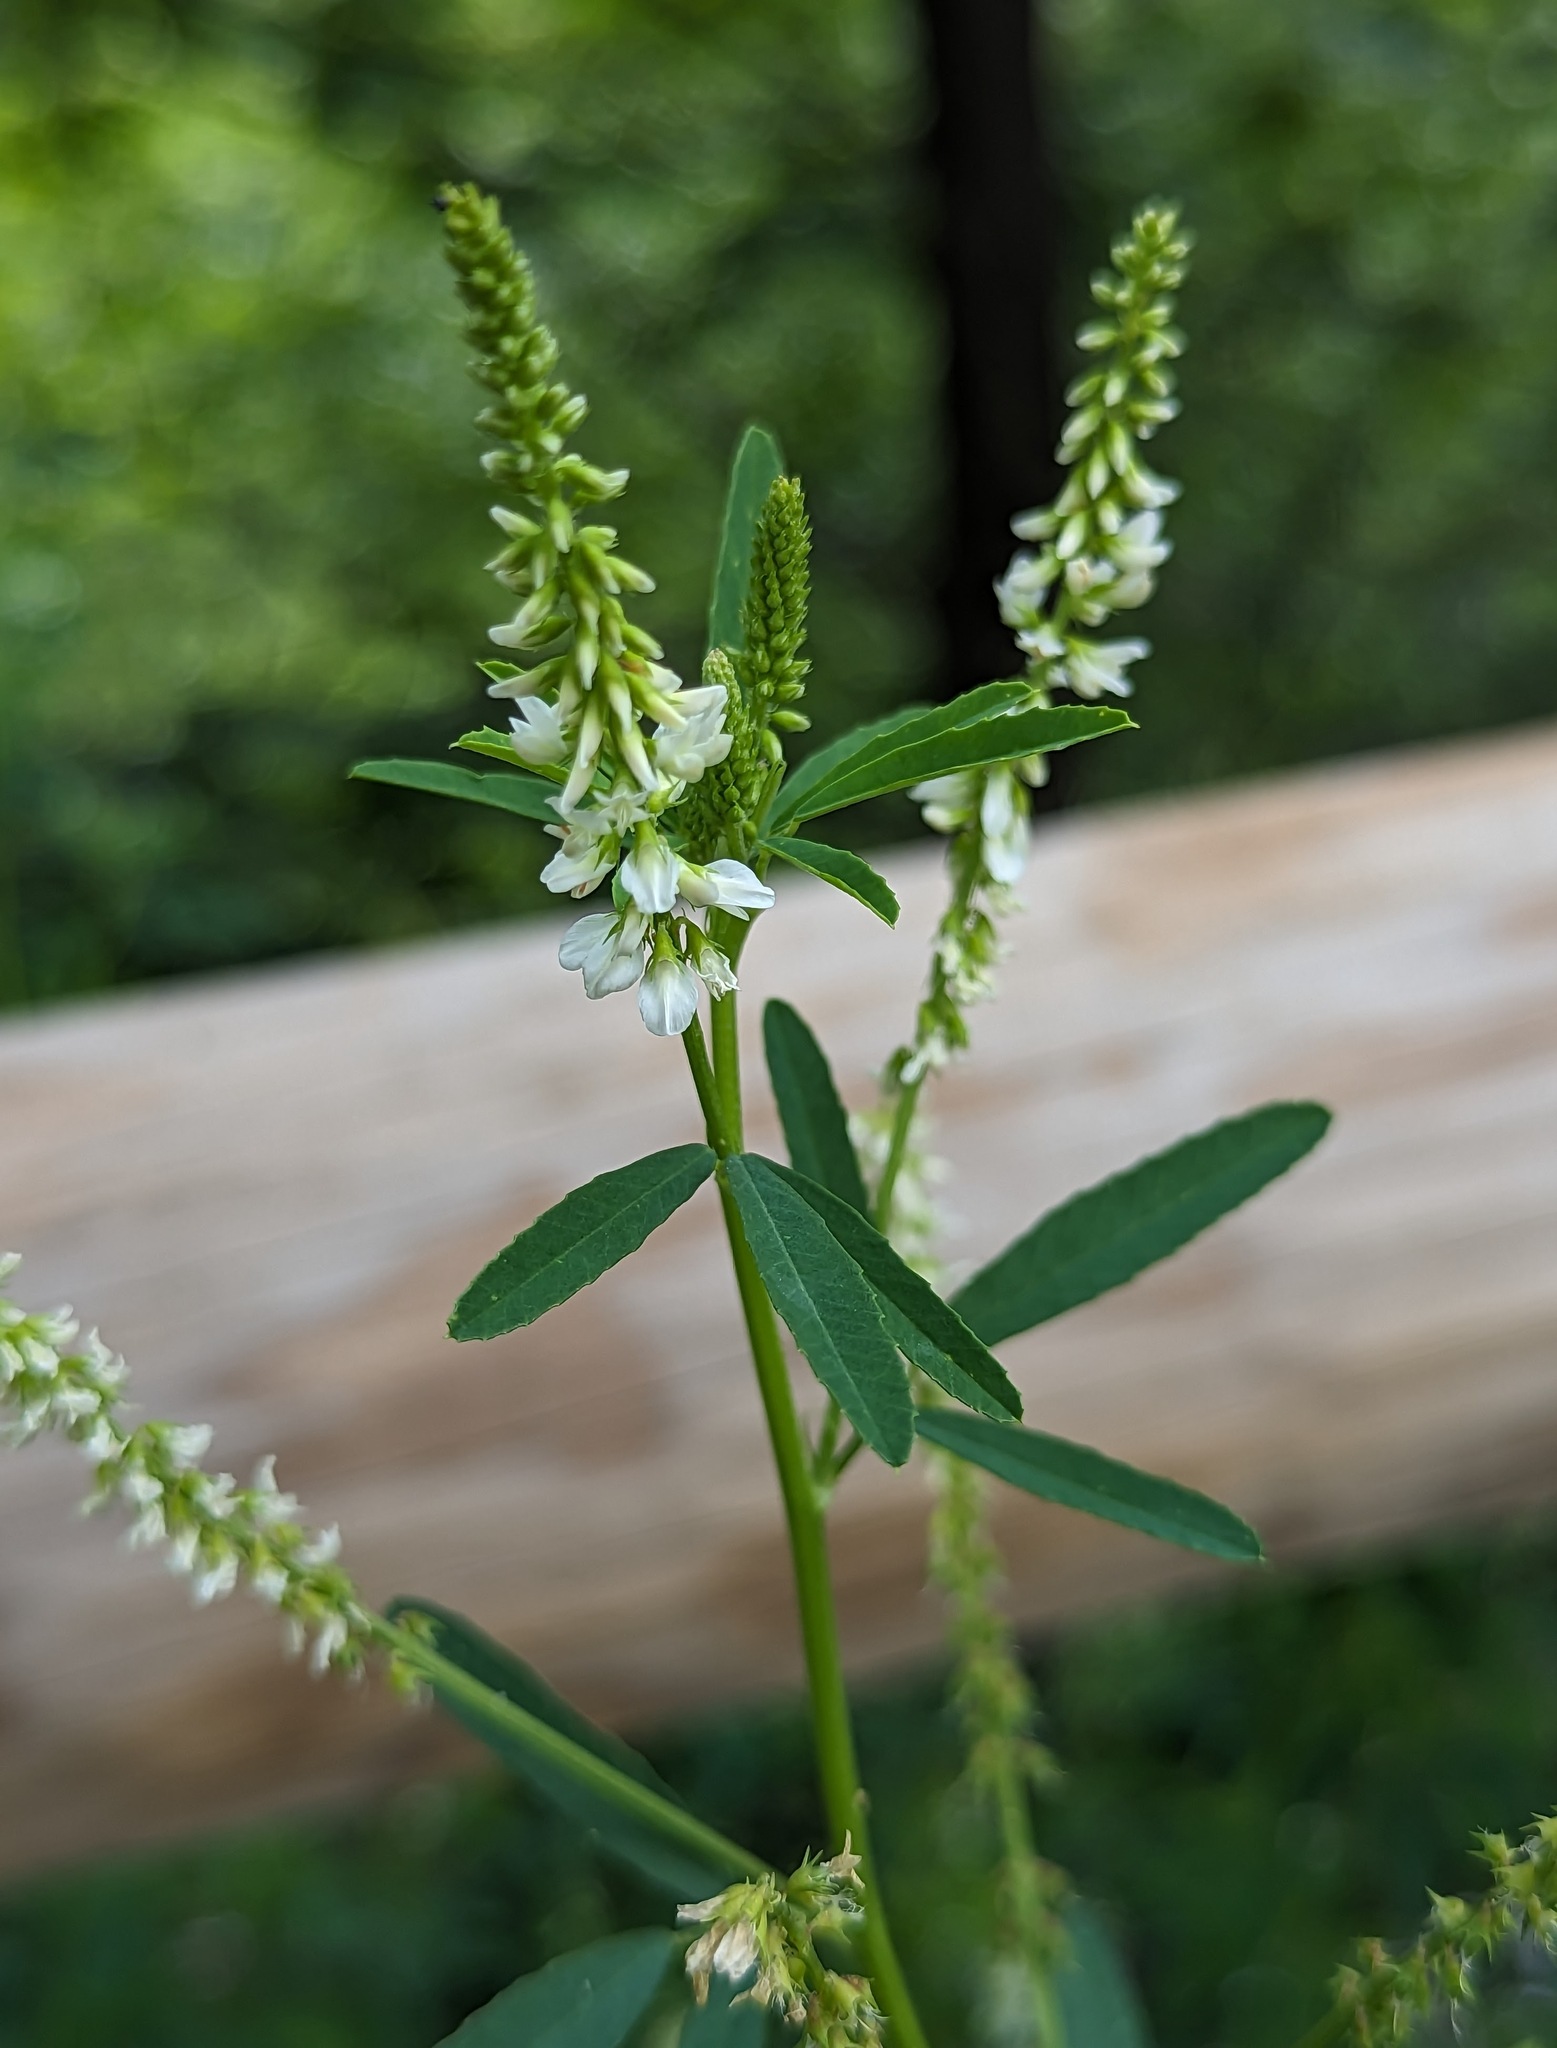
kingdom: Plantae
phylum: Tracheophyta
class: Magnoliopsida
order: Fabales
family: Fabaceae
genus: Melilotus
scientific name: Melilotus albus
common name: White melilot
